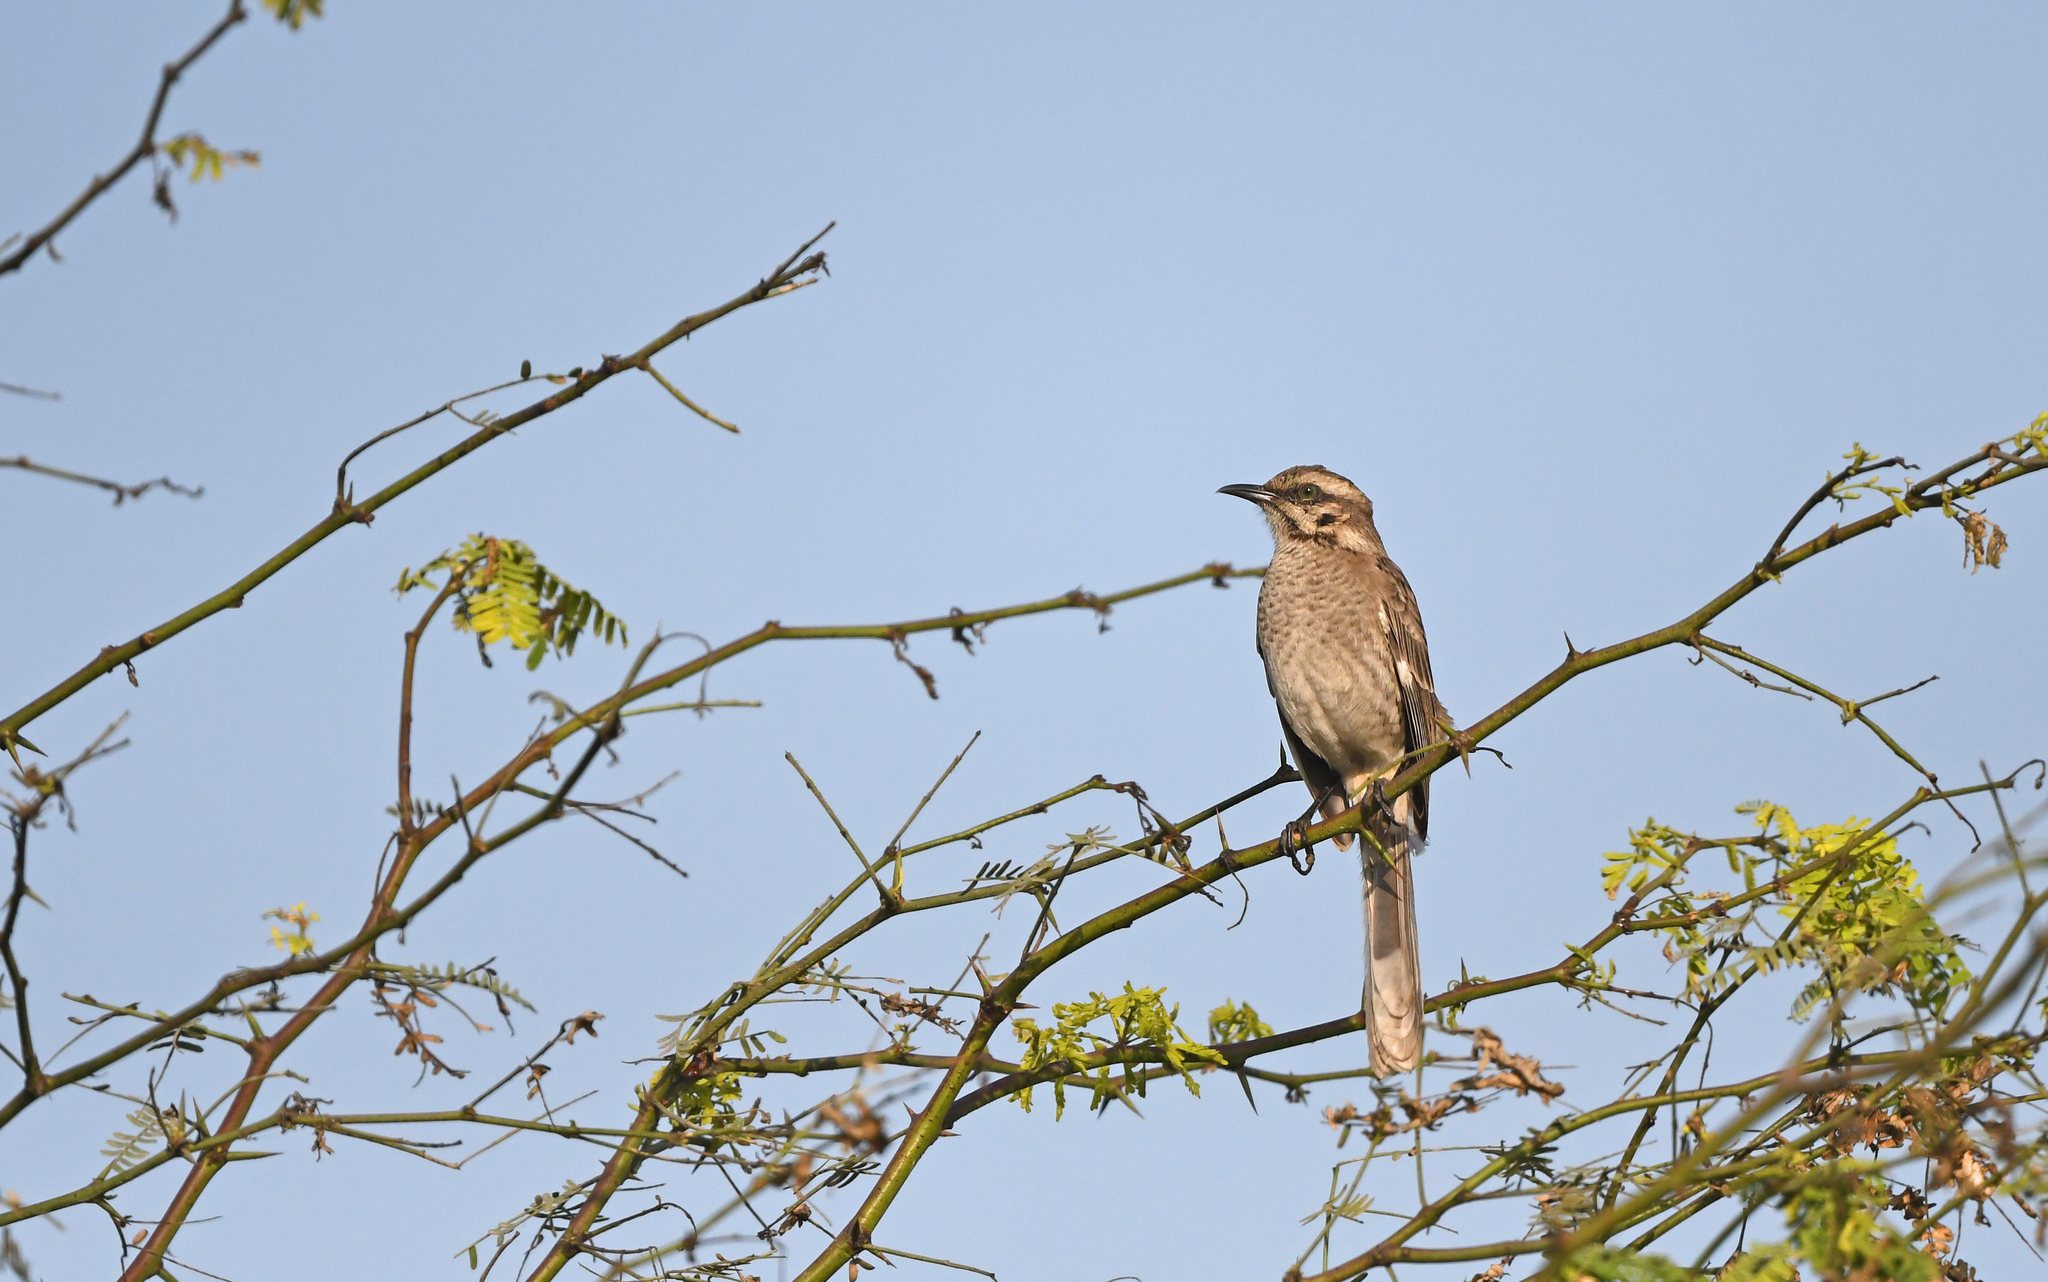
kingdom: Animalia
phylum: Chordata
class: Aves
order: Passeriformes
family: Mimidae
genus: Mimus
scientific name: Mimus longicaudatus
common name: Long-tailed mockingbird
